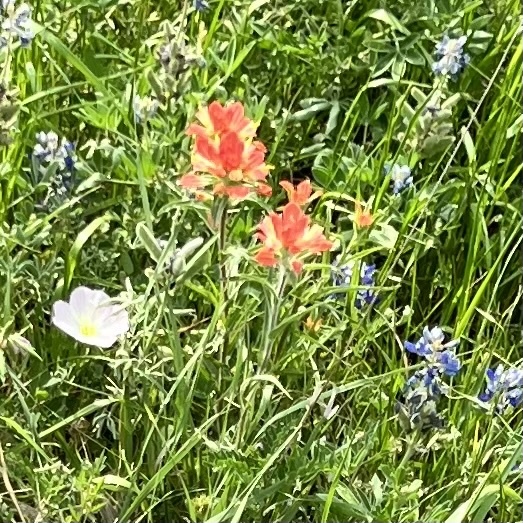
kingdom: Plantae
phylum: Tracheophyta
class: Magnoliopsida
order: Lamiales
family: Orobanchaceae
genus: Castilleja
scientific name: Castilleja indivisa
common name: Texas paintbrush
